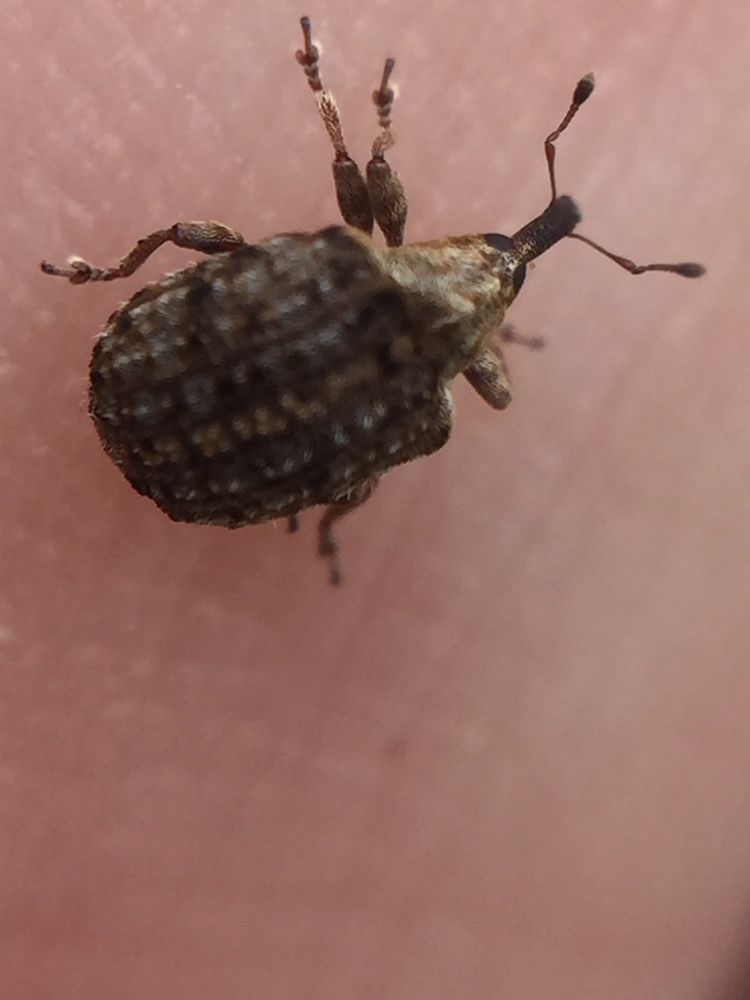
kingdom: Animalia
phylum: Arthropoda
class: Insecta
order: Coleoptera
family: Curculionidae
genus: Cleopus
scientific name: Cleopus japonicus
